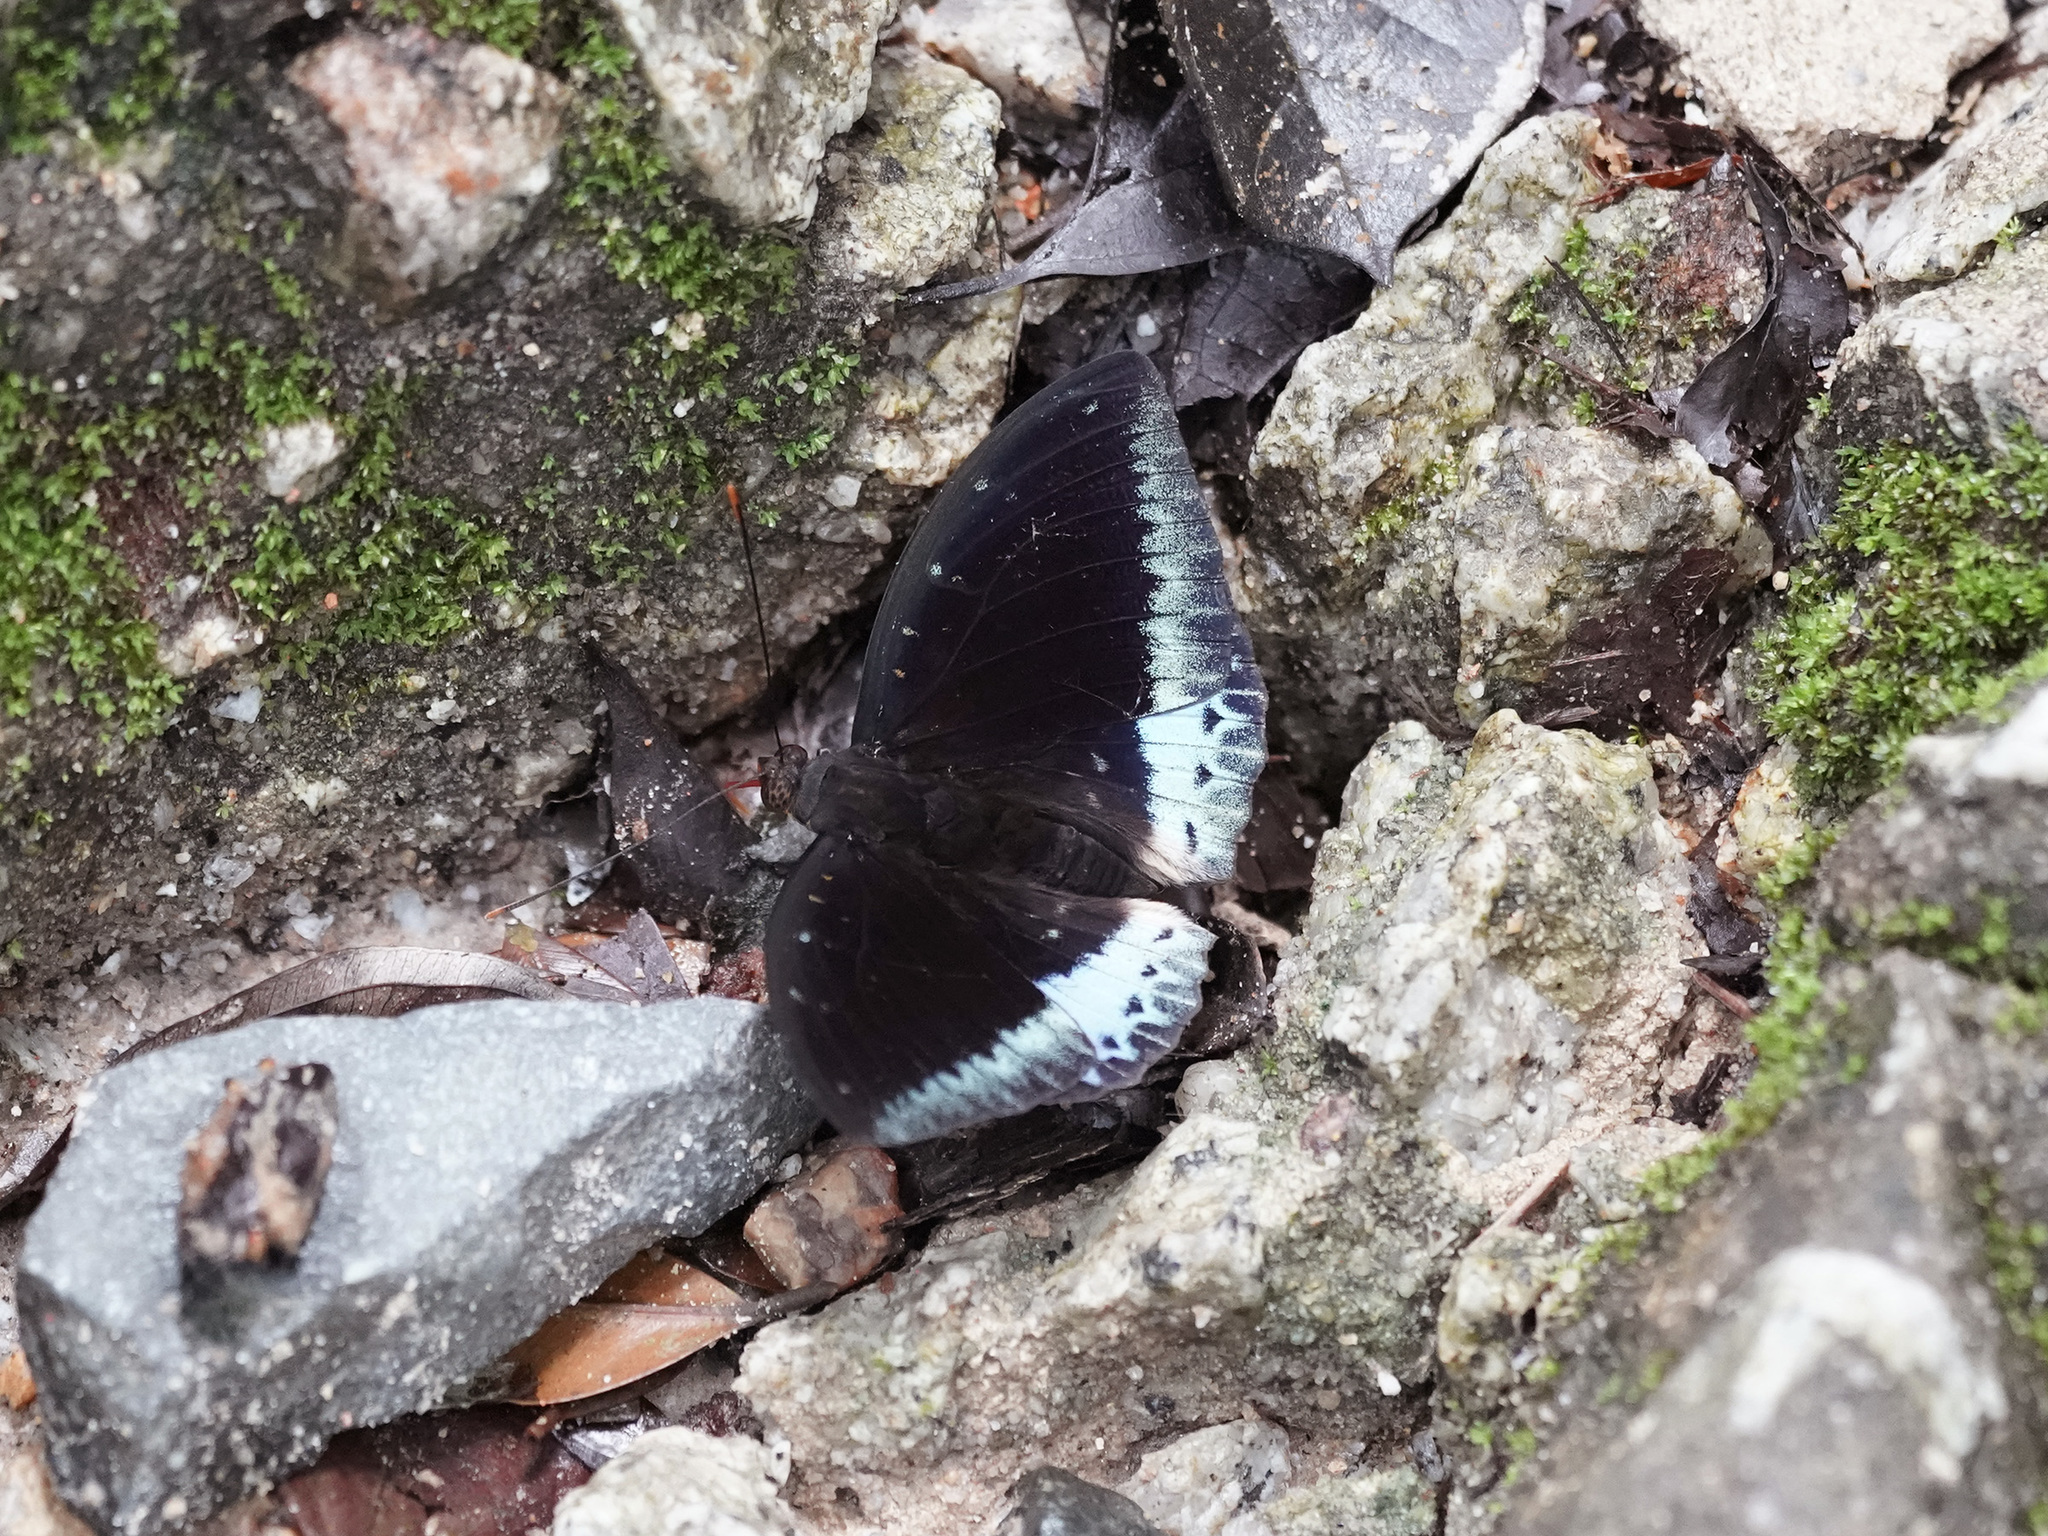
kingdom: Animalia
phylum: Arthropoda
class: Insecta
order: Lepidoptera
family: Nymphalidae
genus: Lexias
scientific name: Lexias pardalis
